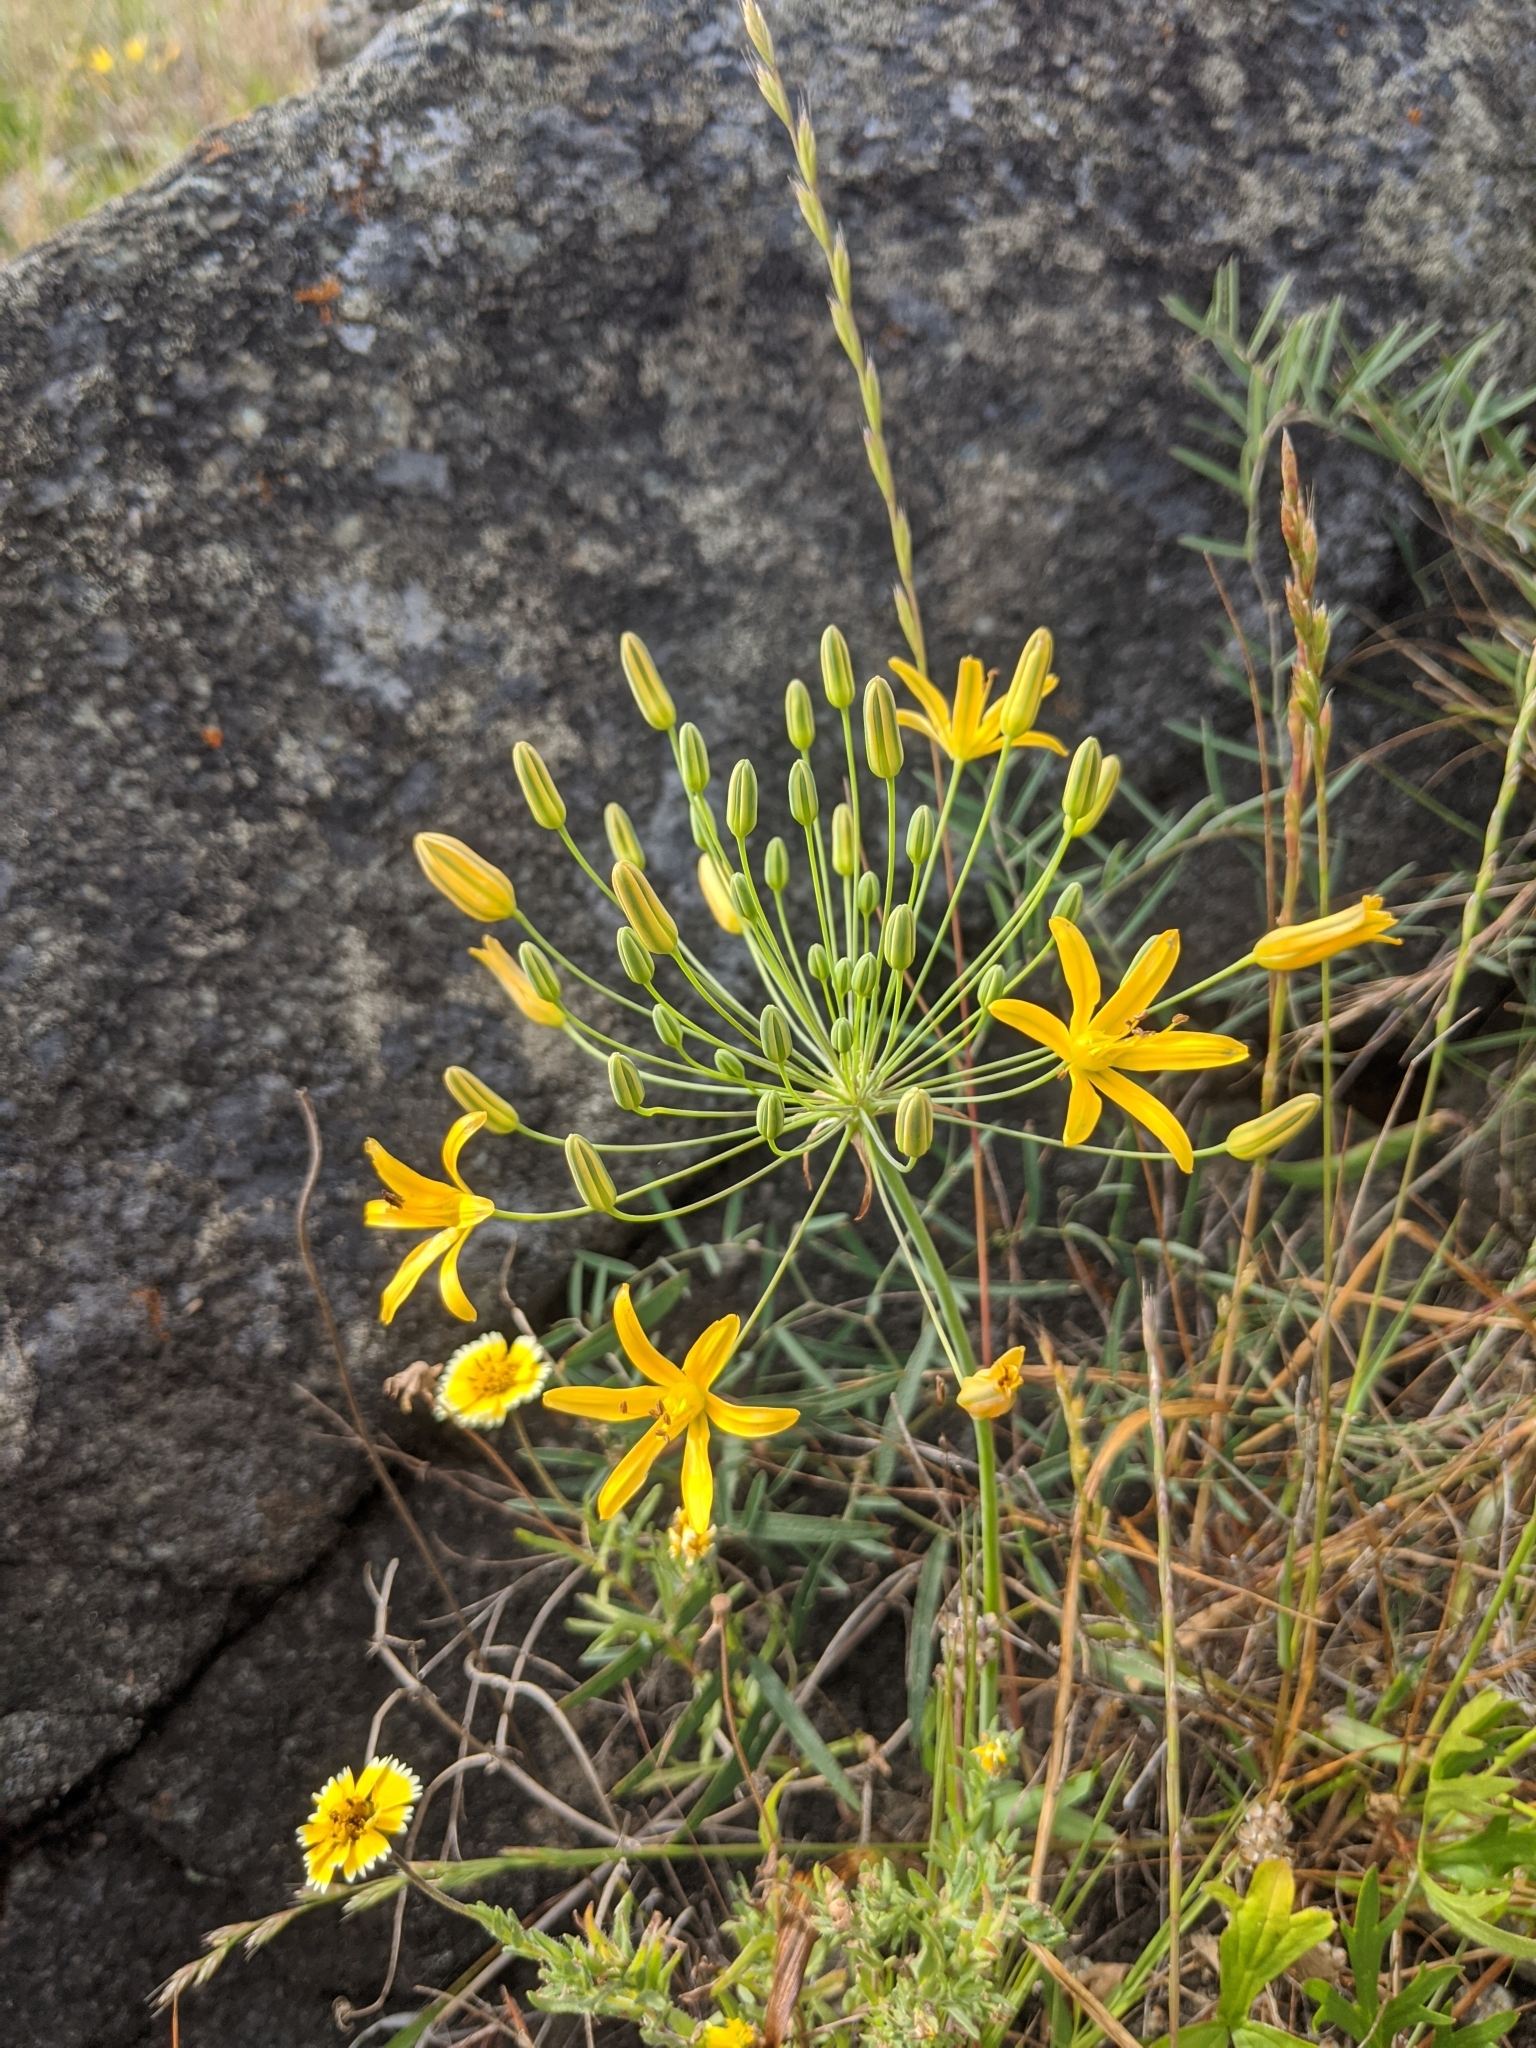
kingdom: Plantae
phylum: Tracheophyta
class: Liliopsida
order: Asparagales
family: Asparagaceae
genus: Bloomeria
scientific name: Bloomeria crocea
